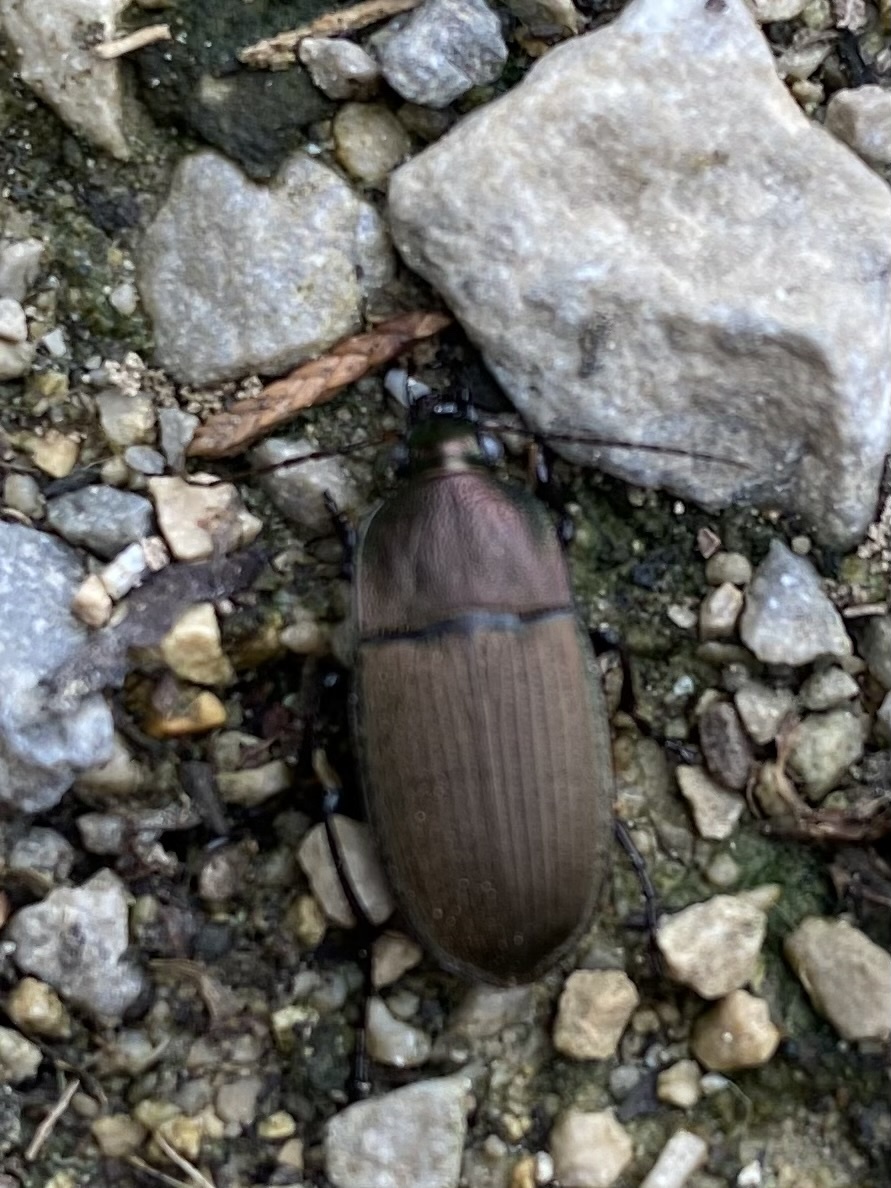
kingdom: Animalia
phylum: Arthropoda
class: Insecta
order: Coleoptera
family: Carabidae
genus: Chlaenius
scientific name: Chlaenius tomentosus
